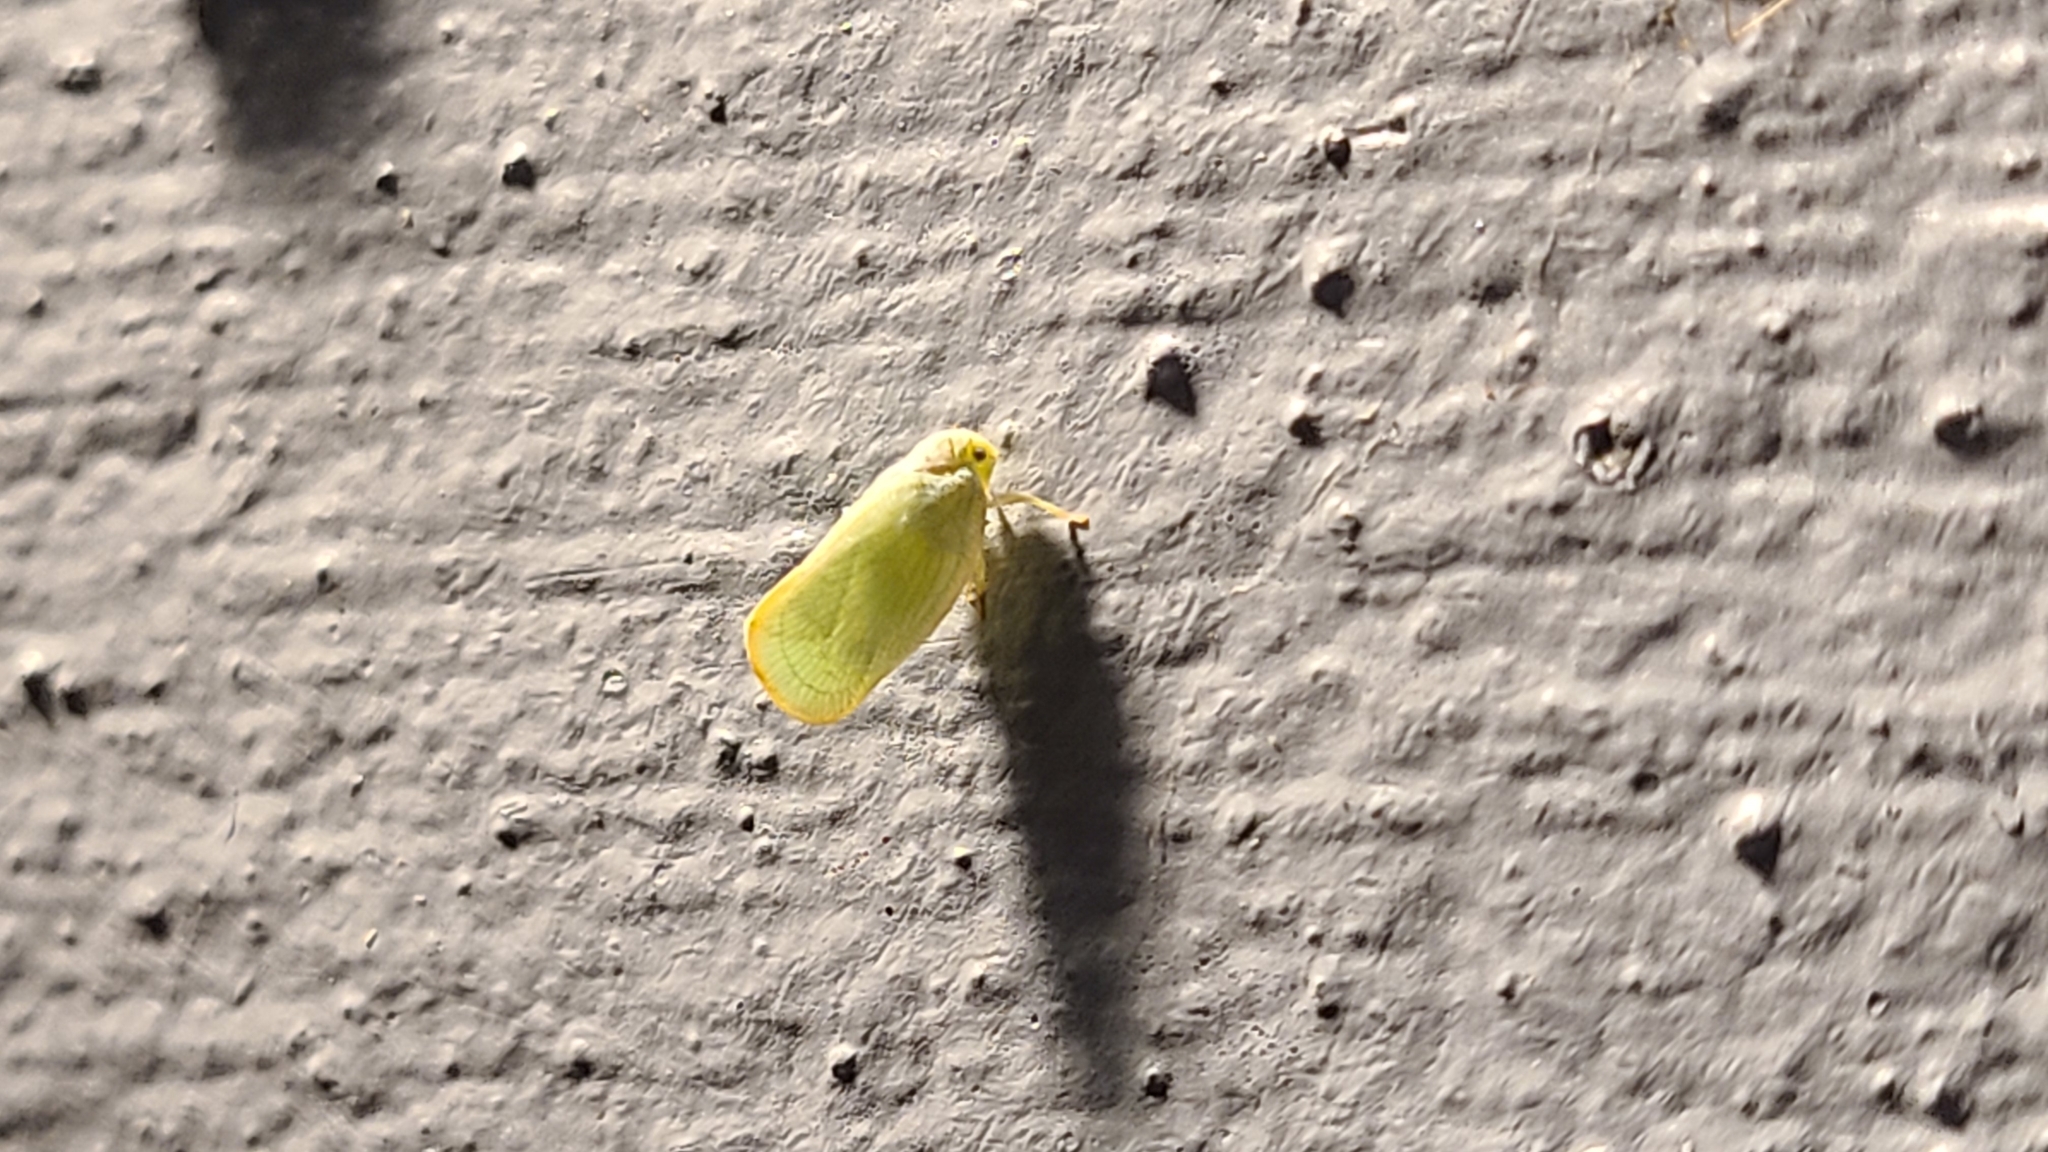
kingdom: Animalia
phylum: Arthropoda
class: Insecta
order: Hemiptera
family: Flatidae
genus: Ormenoides
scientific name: Ormenoides venusta
